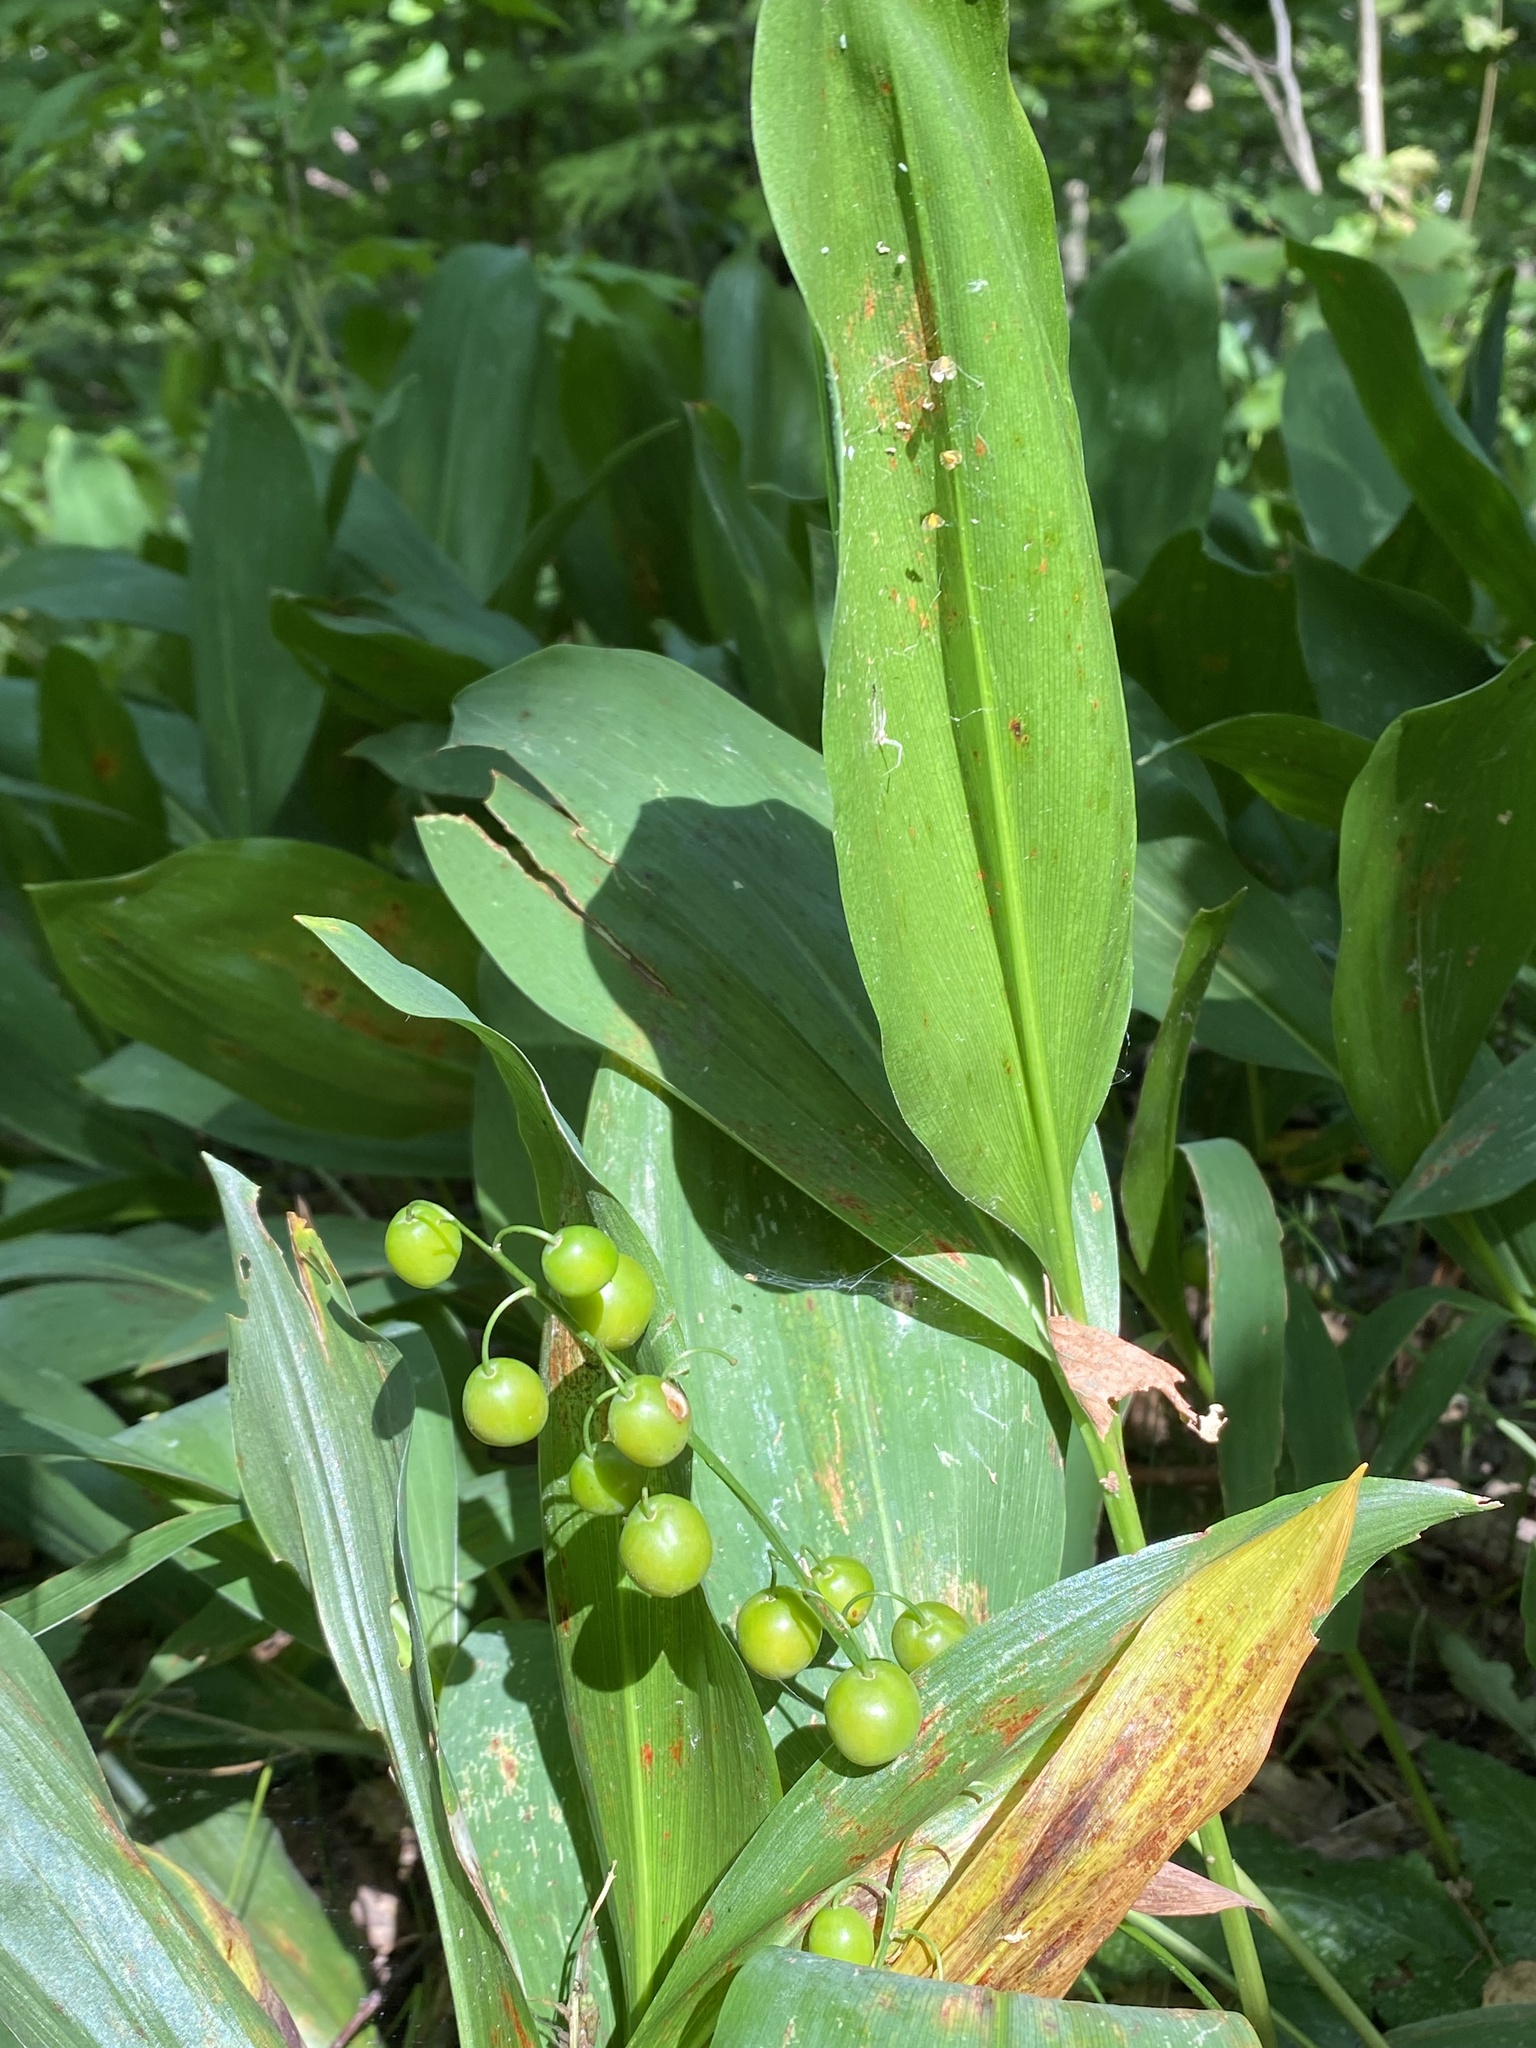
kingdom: Plantae
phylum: Tracheophyta
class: Liliopsida
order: Asparagales
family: Asparagaceae
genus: Convallaria
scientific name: Convallaria majalis
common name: Lily-of-the-valley
